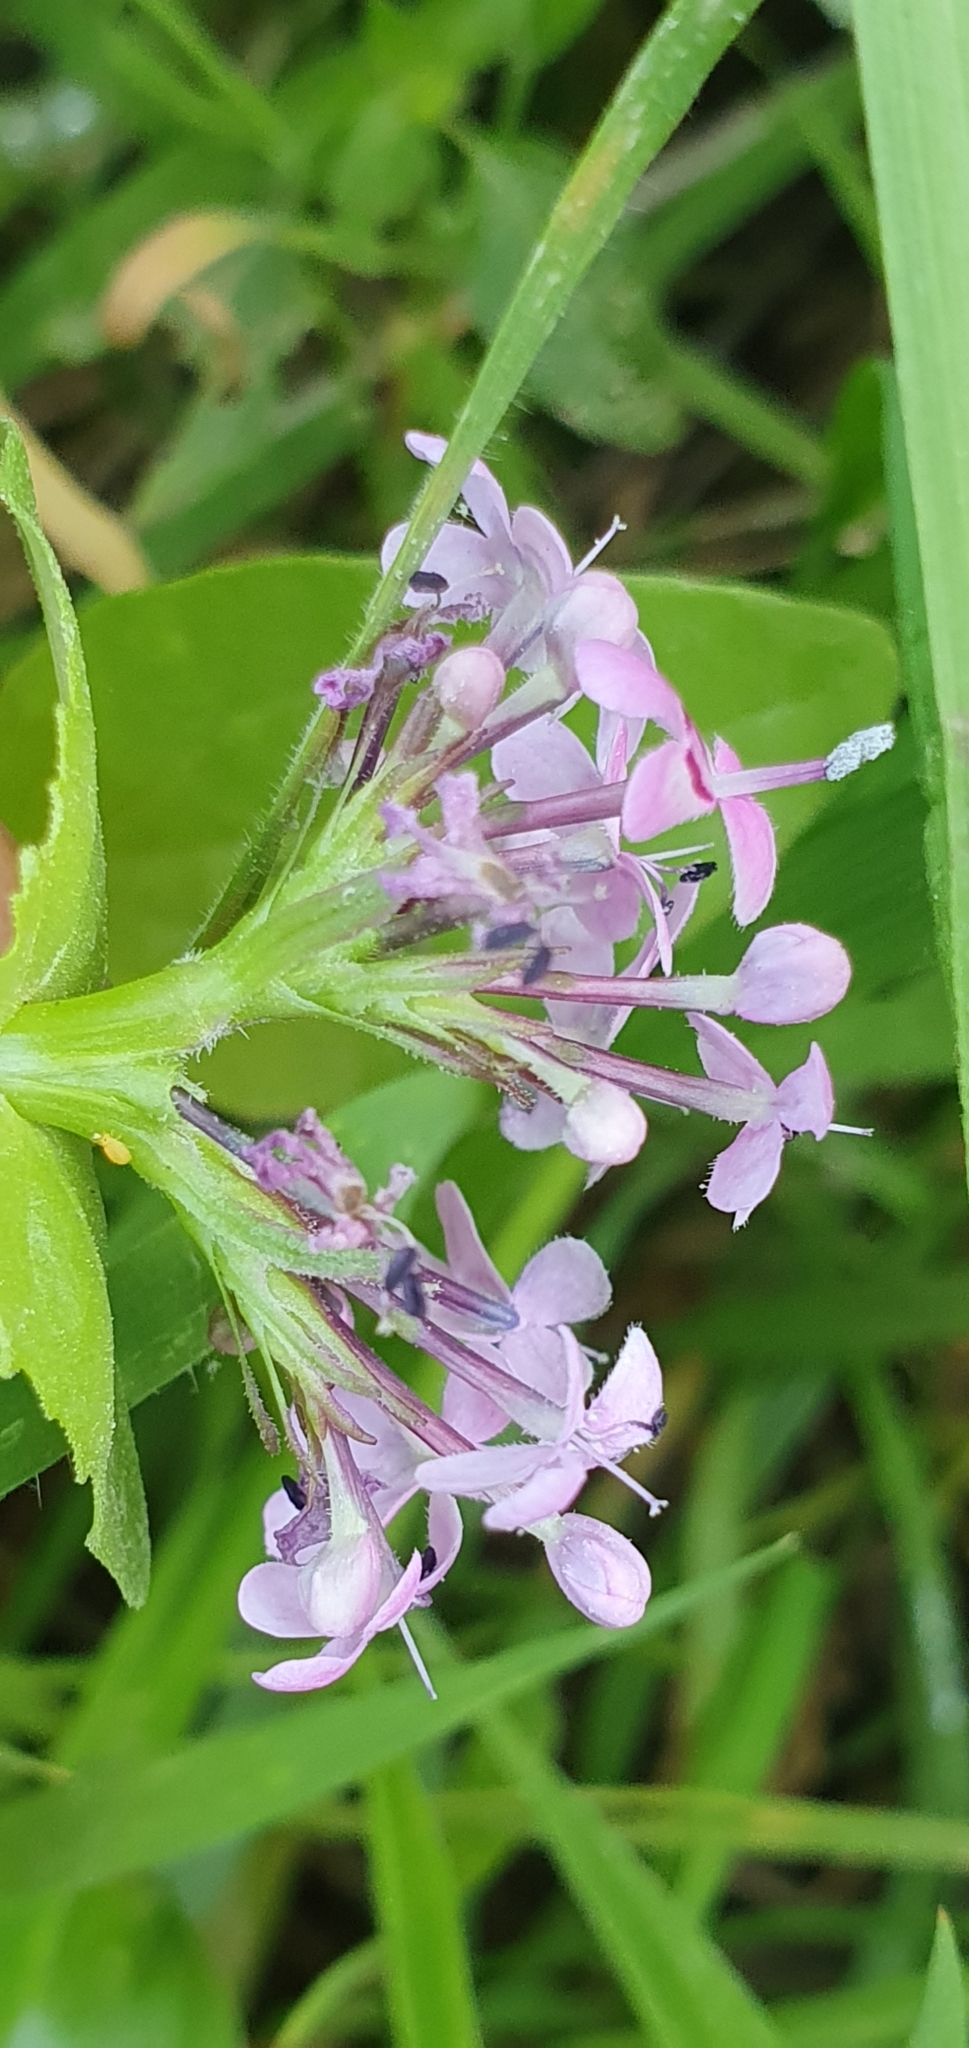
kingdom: Plantae
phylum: Tracheophyta
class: Magnoliopsida
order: Dipsacales
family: Caprifoliaceae
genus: Fedia
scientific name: Fedia graciliflora
